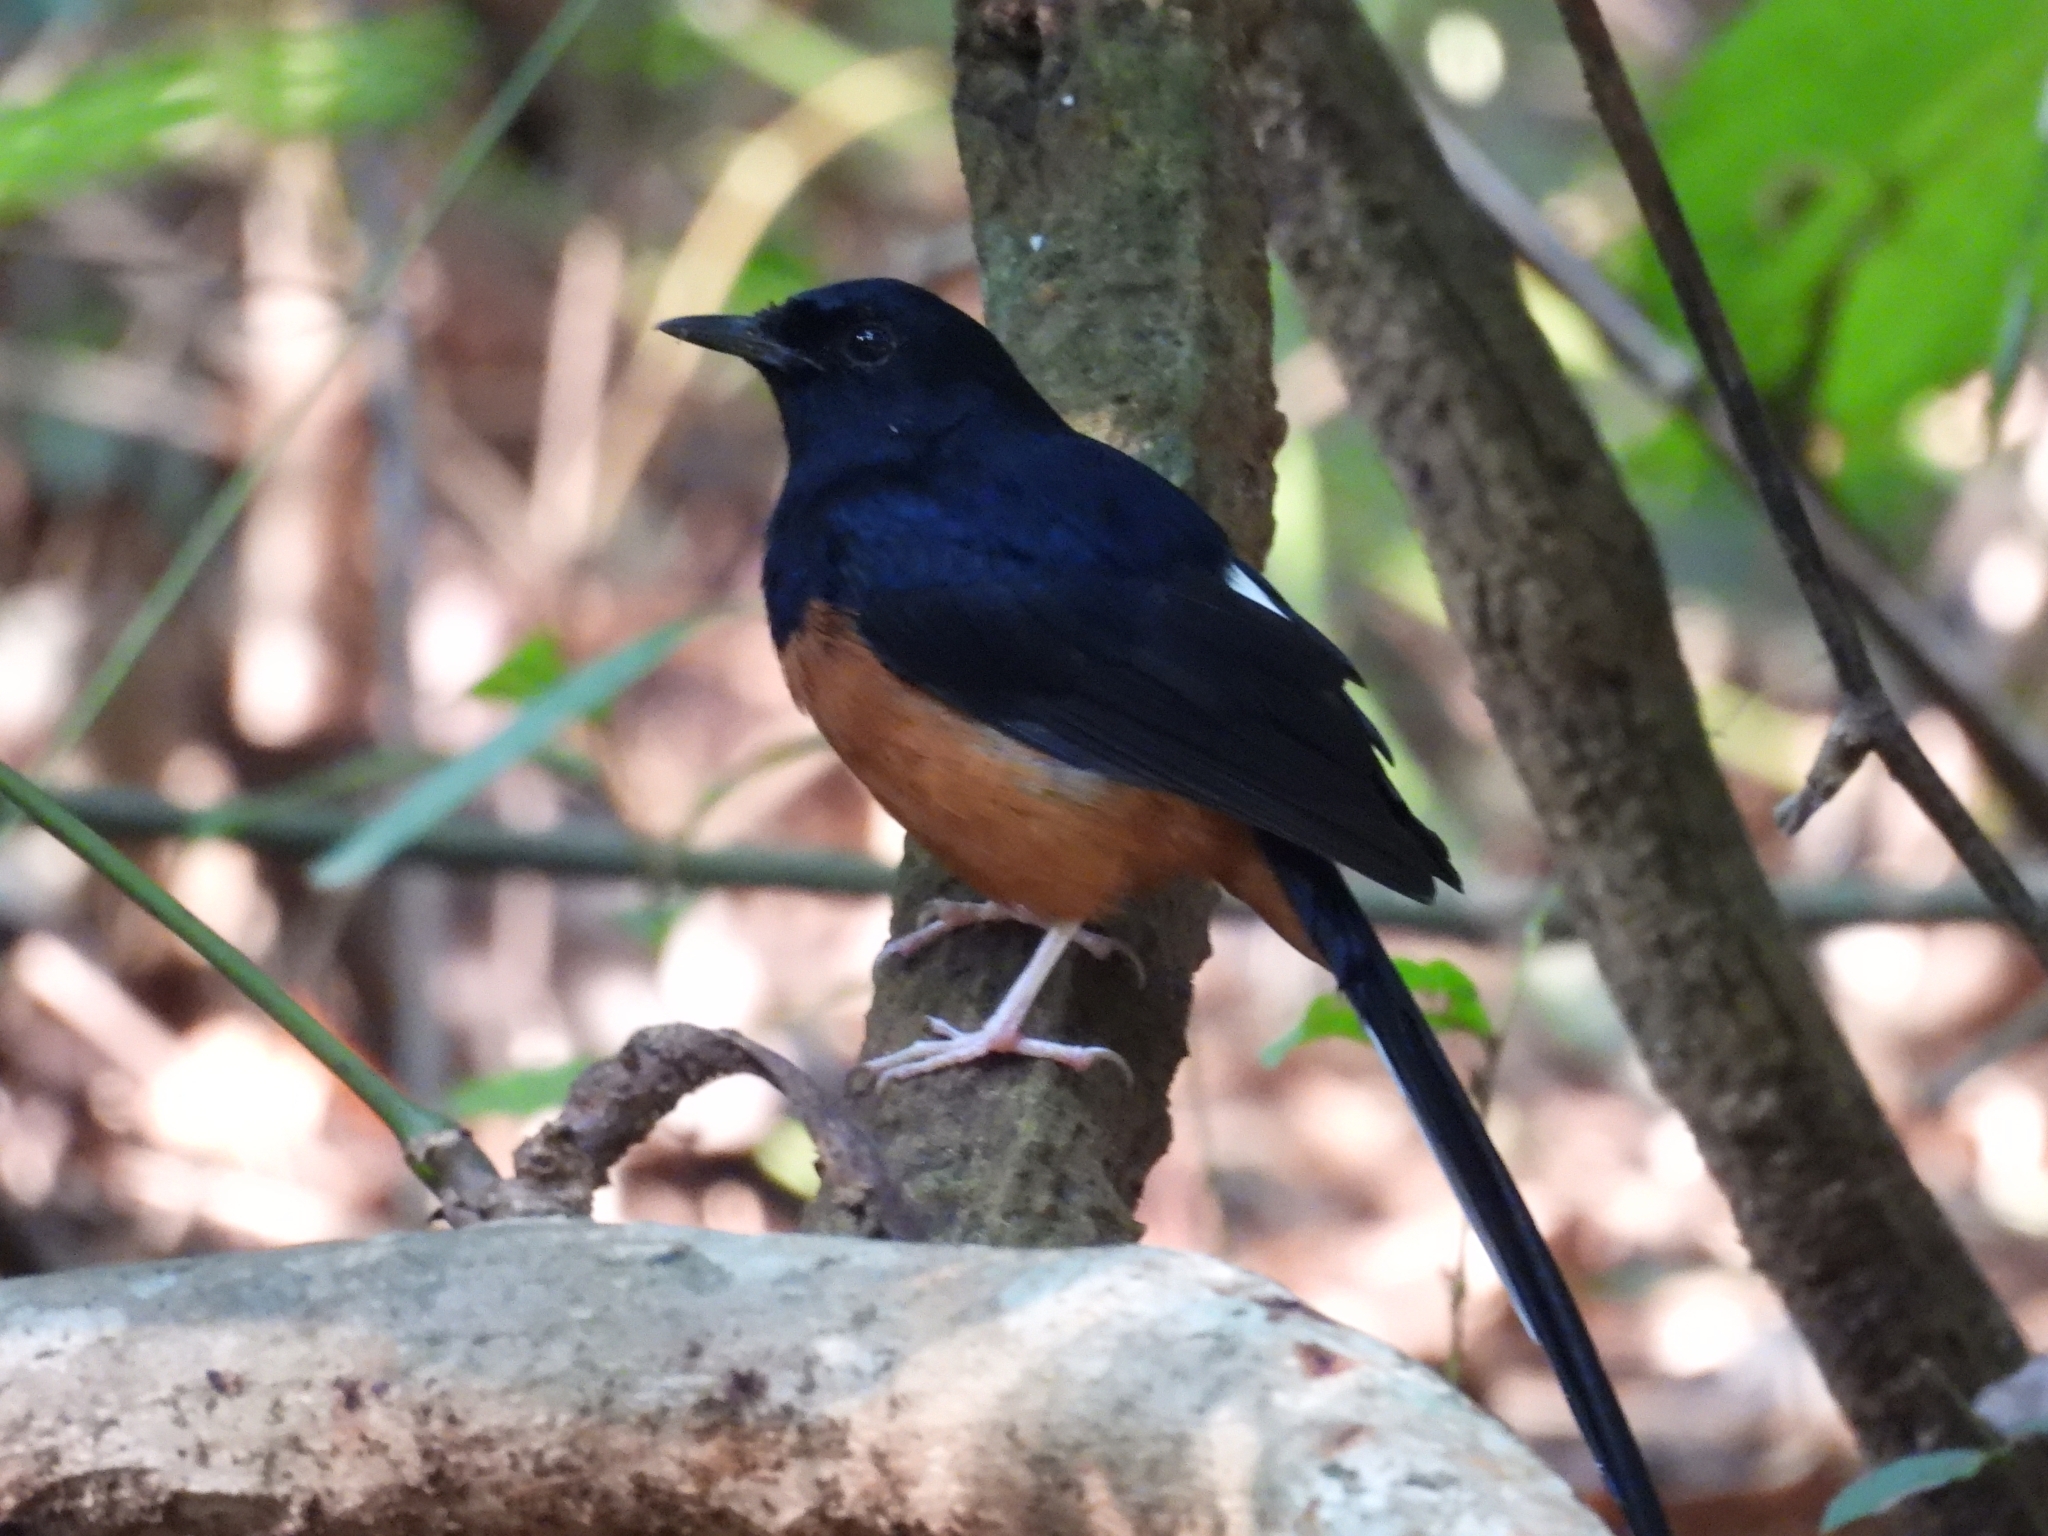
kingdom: Animalia
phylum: Chordata
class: Aves
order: Passeriformes
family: Muscicapidae
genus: Copsychus
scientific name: Copsychus malabaricus
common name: White-rumped shama
